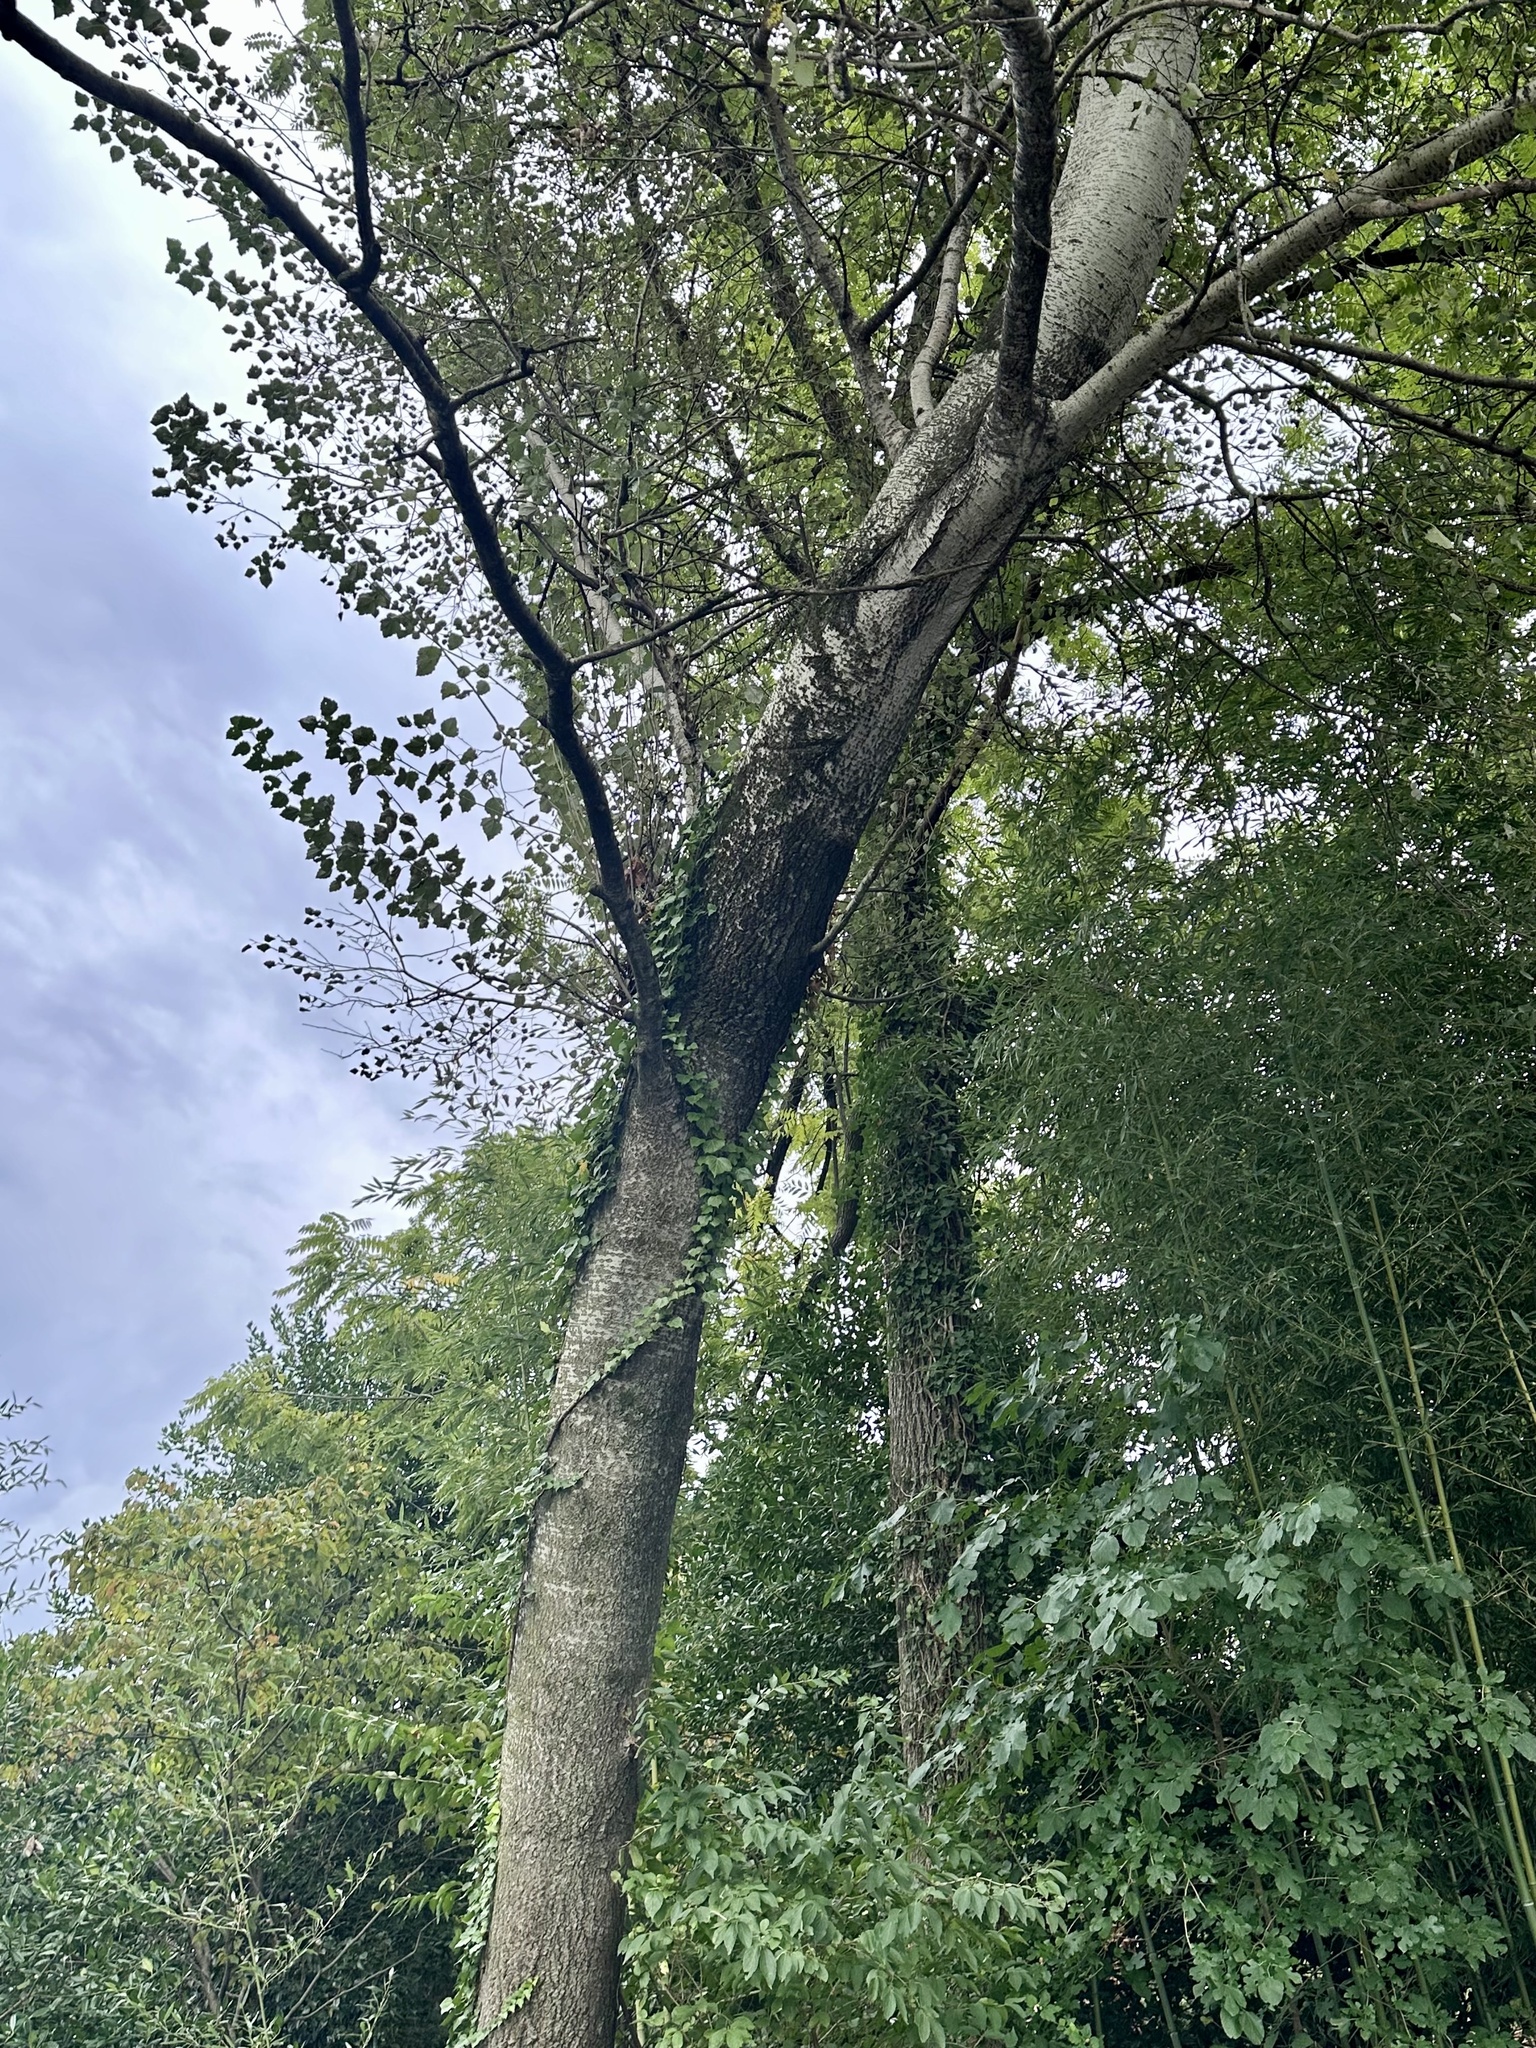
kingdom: Plantae
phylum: Tracheophyta
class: Magnoliopsida
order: Malpighiales
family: Salicaceae
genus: Populus
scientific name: Populus grandidentata
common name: Bigtooth aspen
